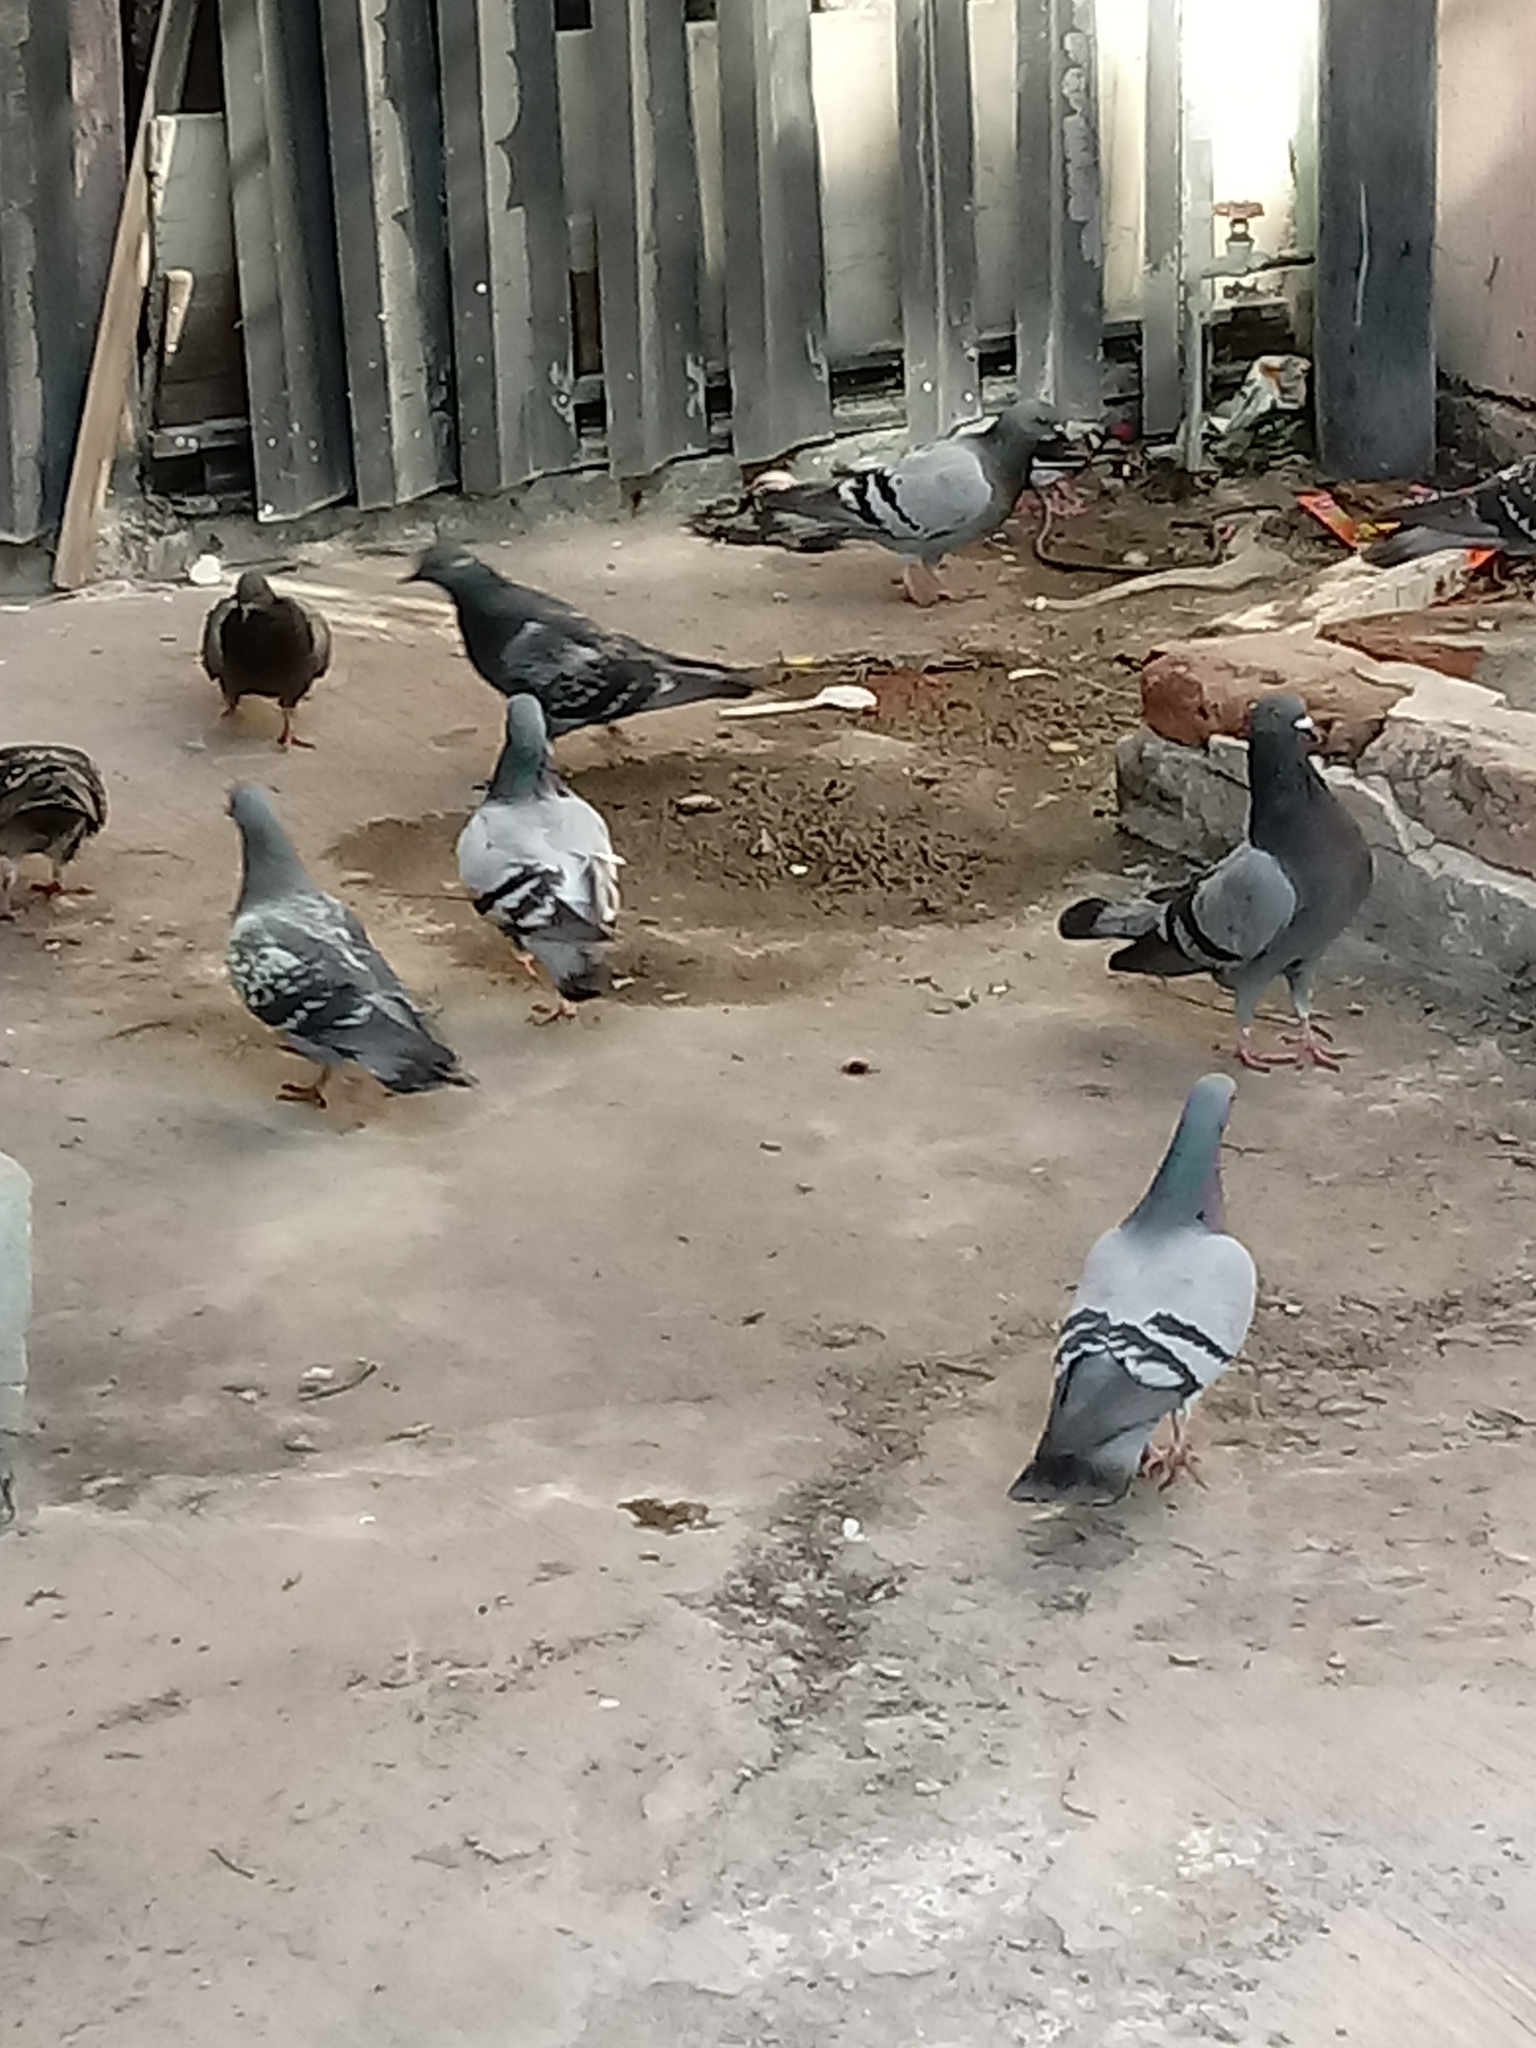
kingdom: Animalia
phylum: Chordata
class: Aves
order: Columbiformes
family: Columbidae
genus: Columba
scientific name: Columba livia
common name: Rock pigeon
